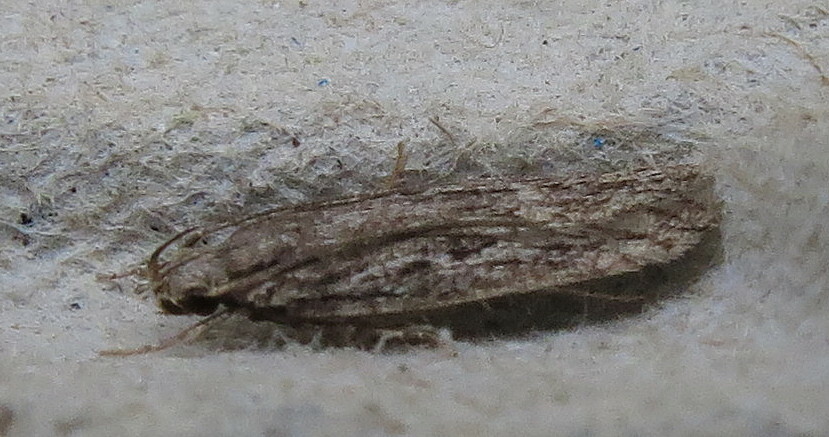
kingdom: Animalia
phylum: Arthropoda
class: Insecta
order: Lepidoptera
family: Depressariidae
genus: Depressaria
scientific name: Depressaria apiella
